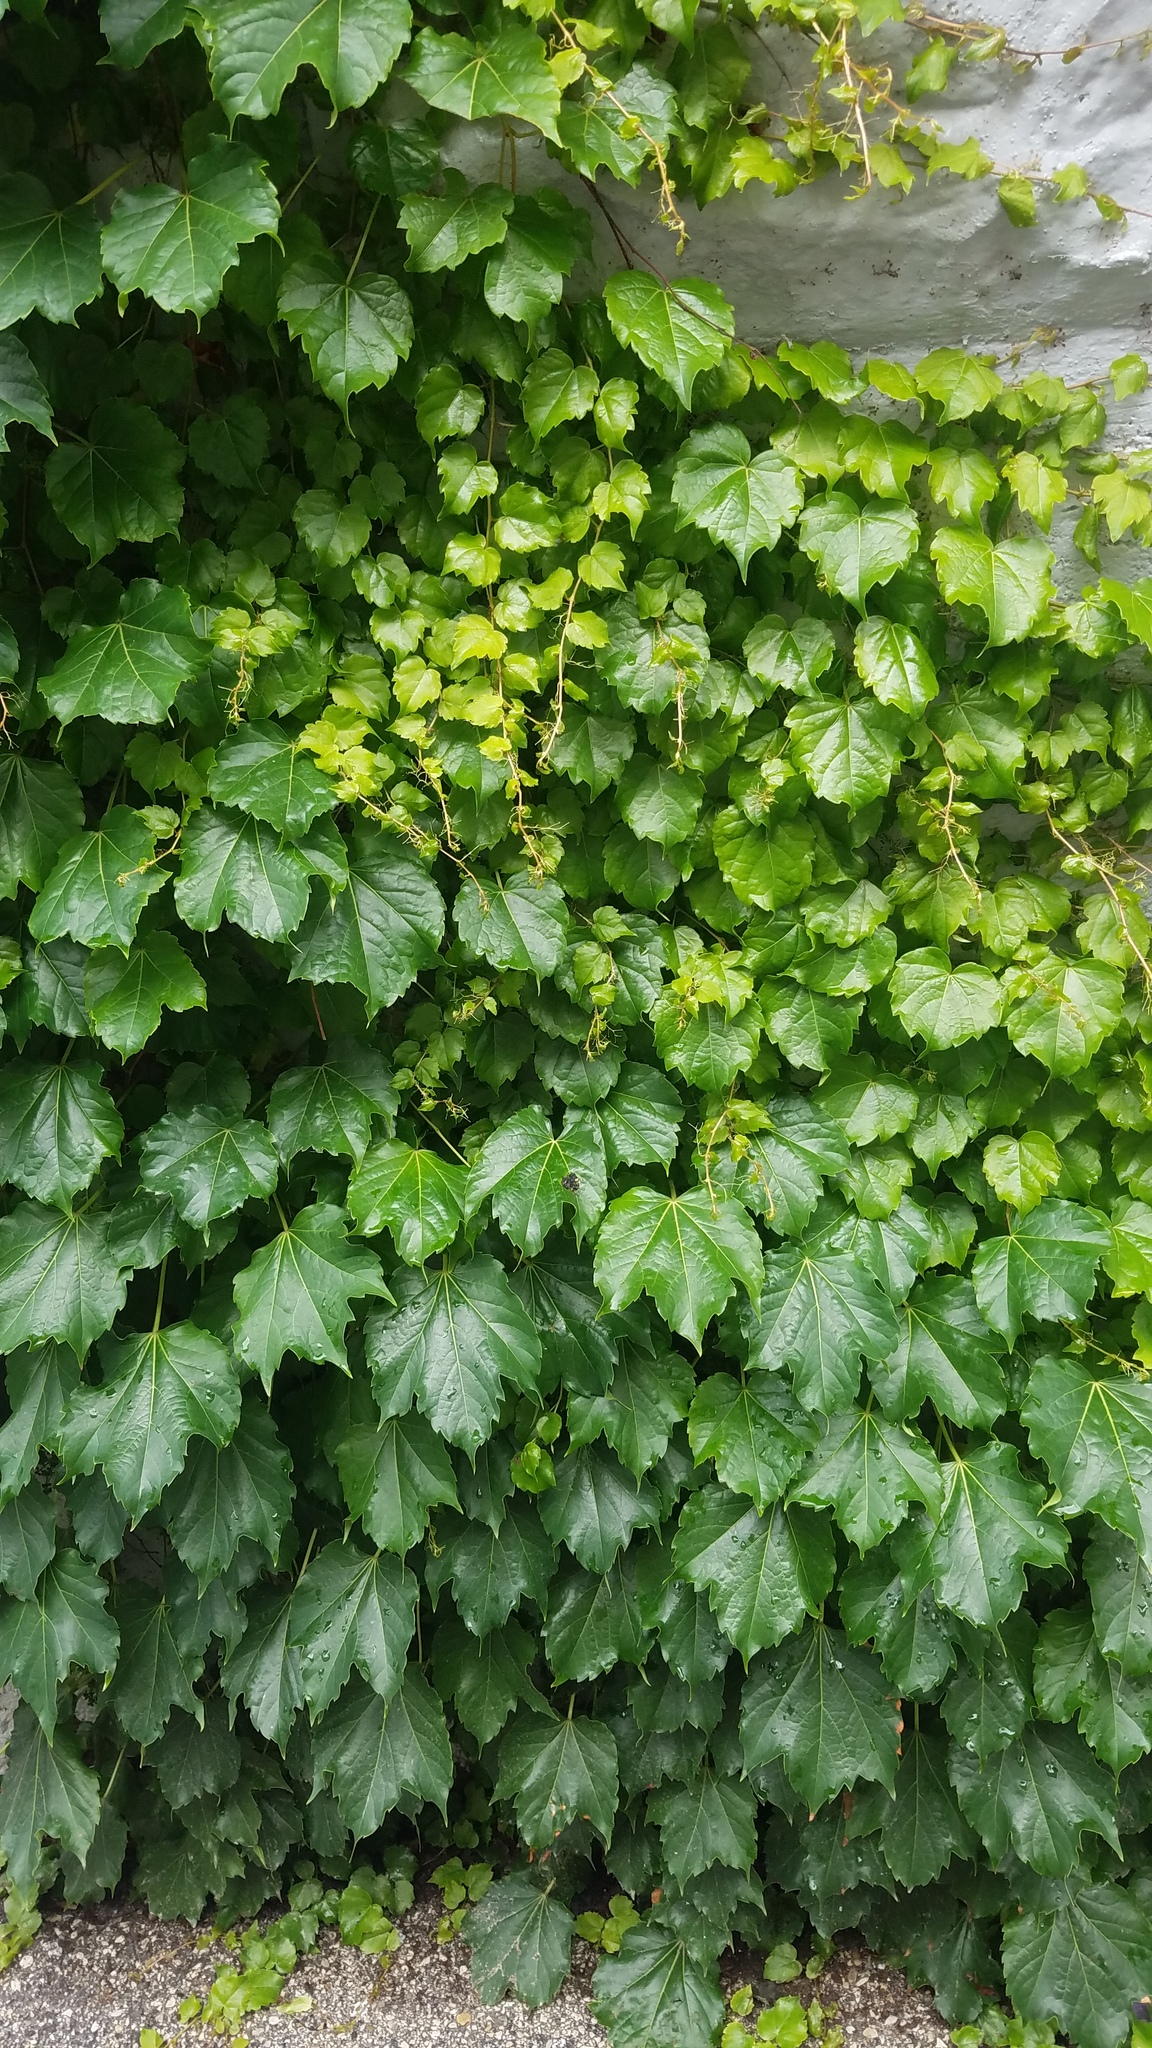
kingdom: Plantae
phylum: Tracheophyta
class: Magnoliopsida
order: Vitales
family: Vitaceae
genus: Parthenocissus
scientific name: Parthenocissus tricuspidata
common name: Boston ivy
